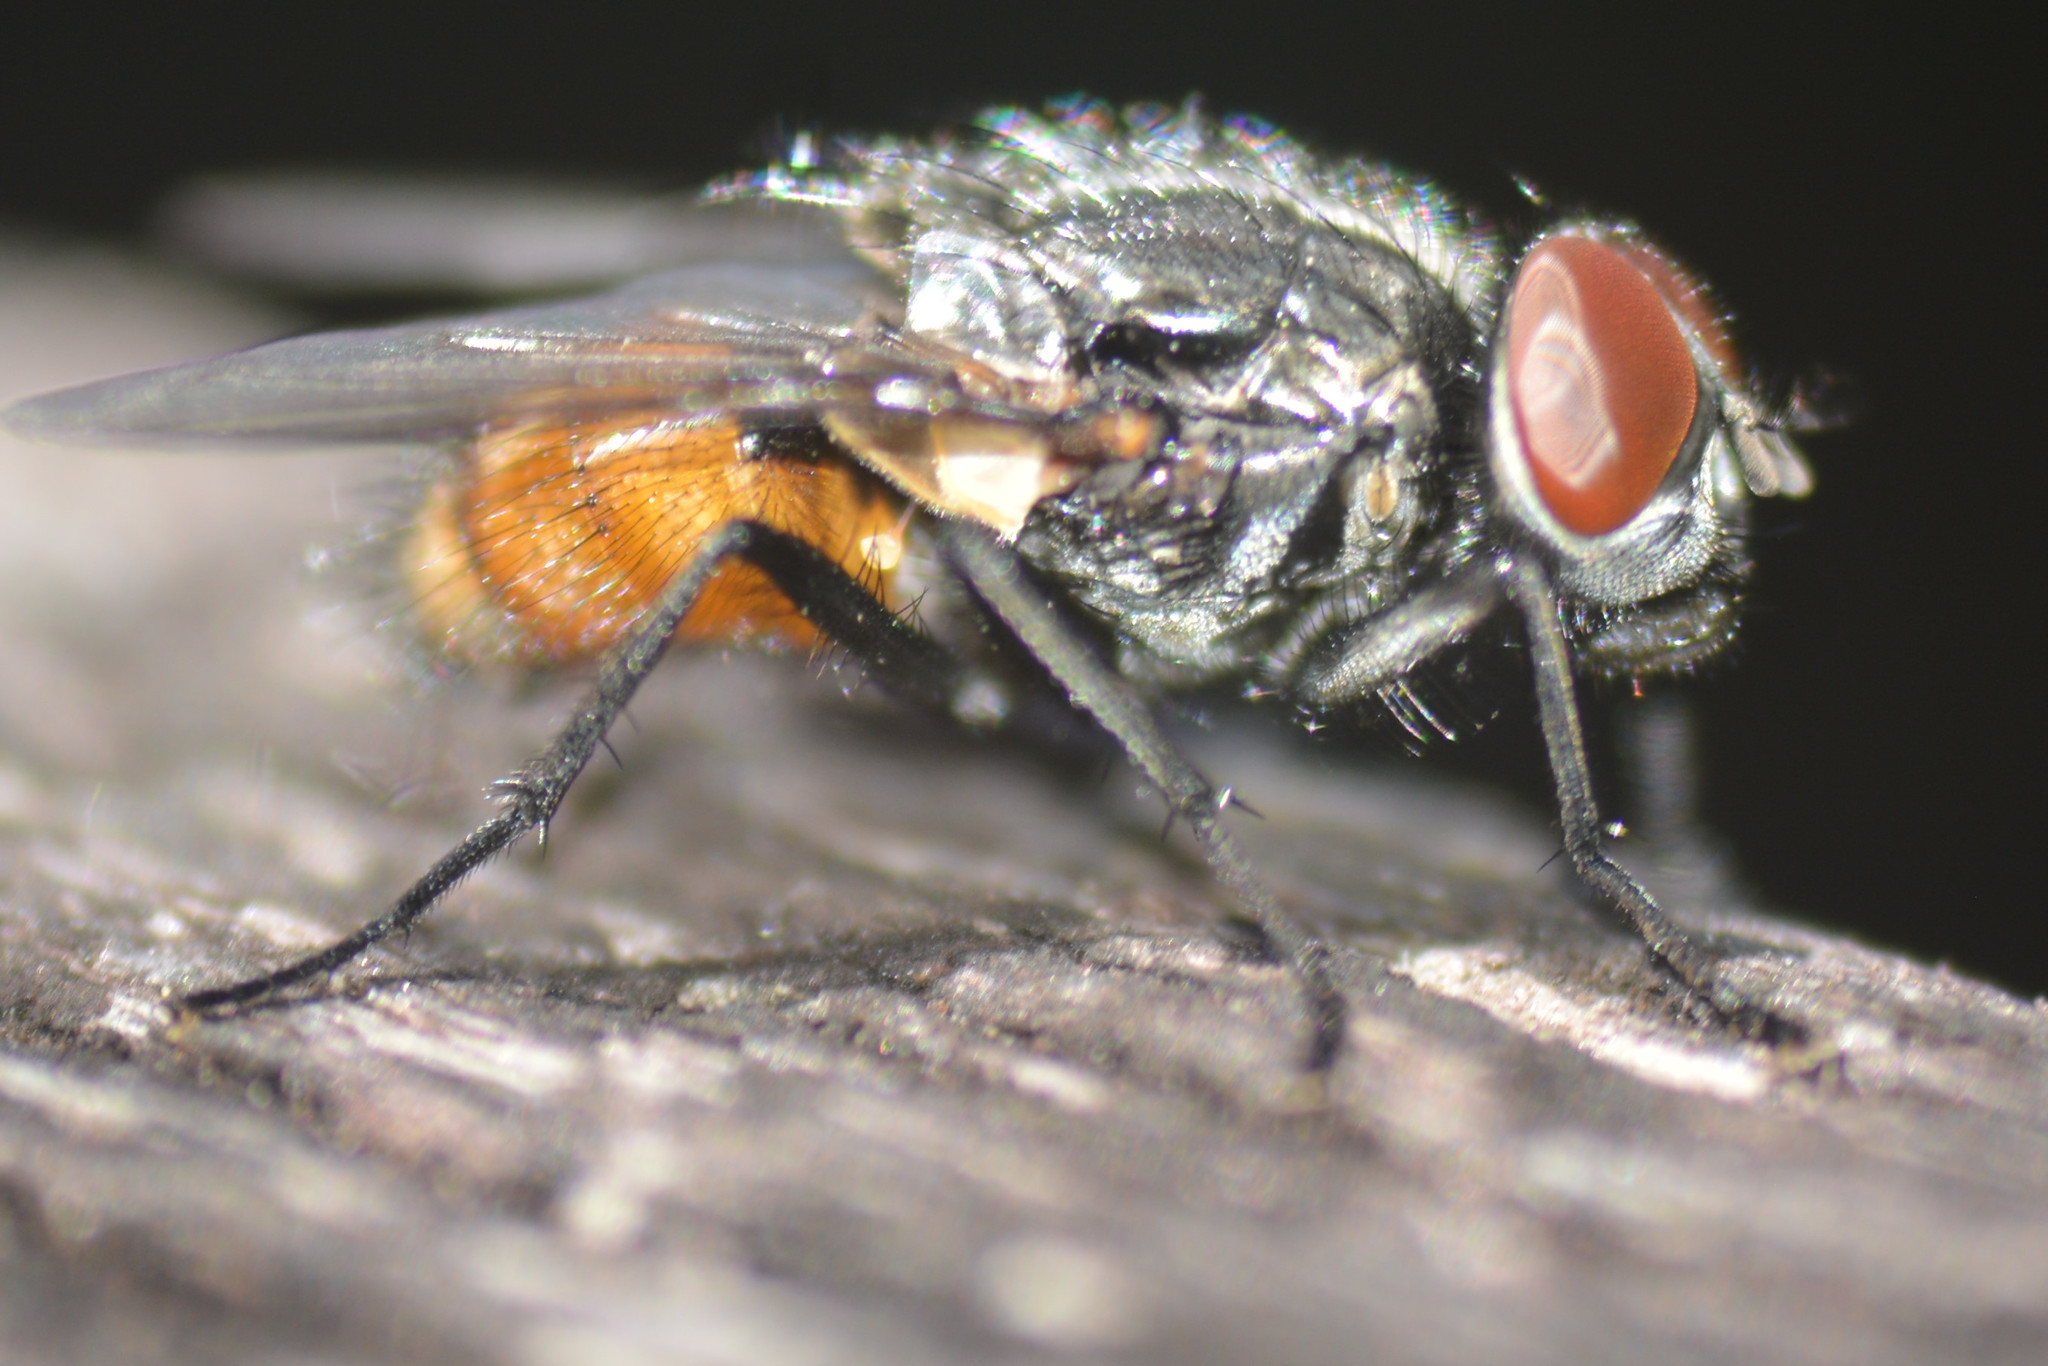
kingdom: Animalia
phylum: Arthropoda
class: Insecta
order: Diptera
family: Muscidae
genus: Musca
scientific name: Musca autumnalis
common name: Face fly
